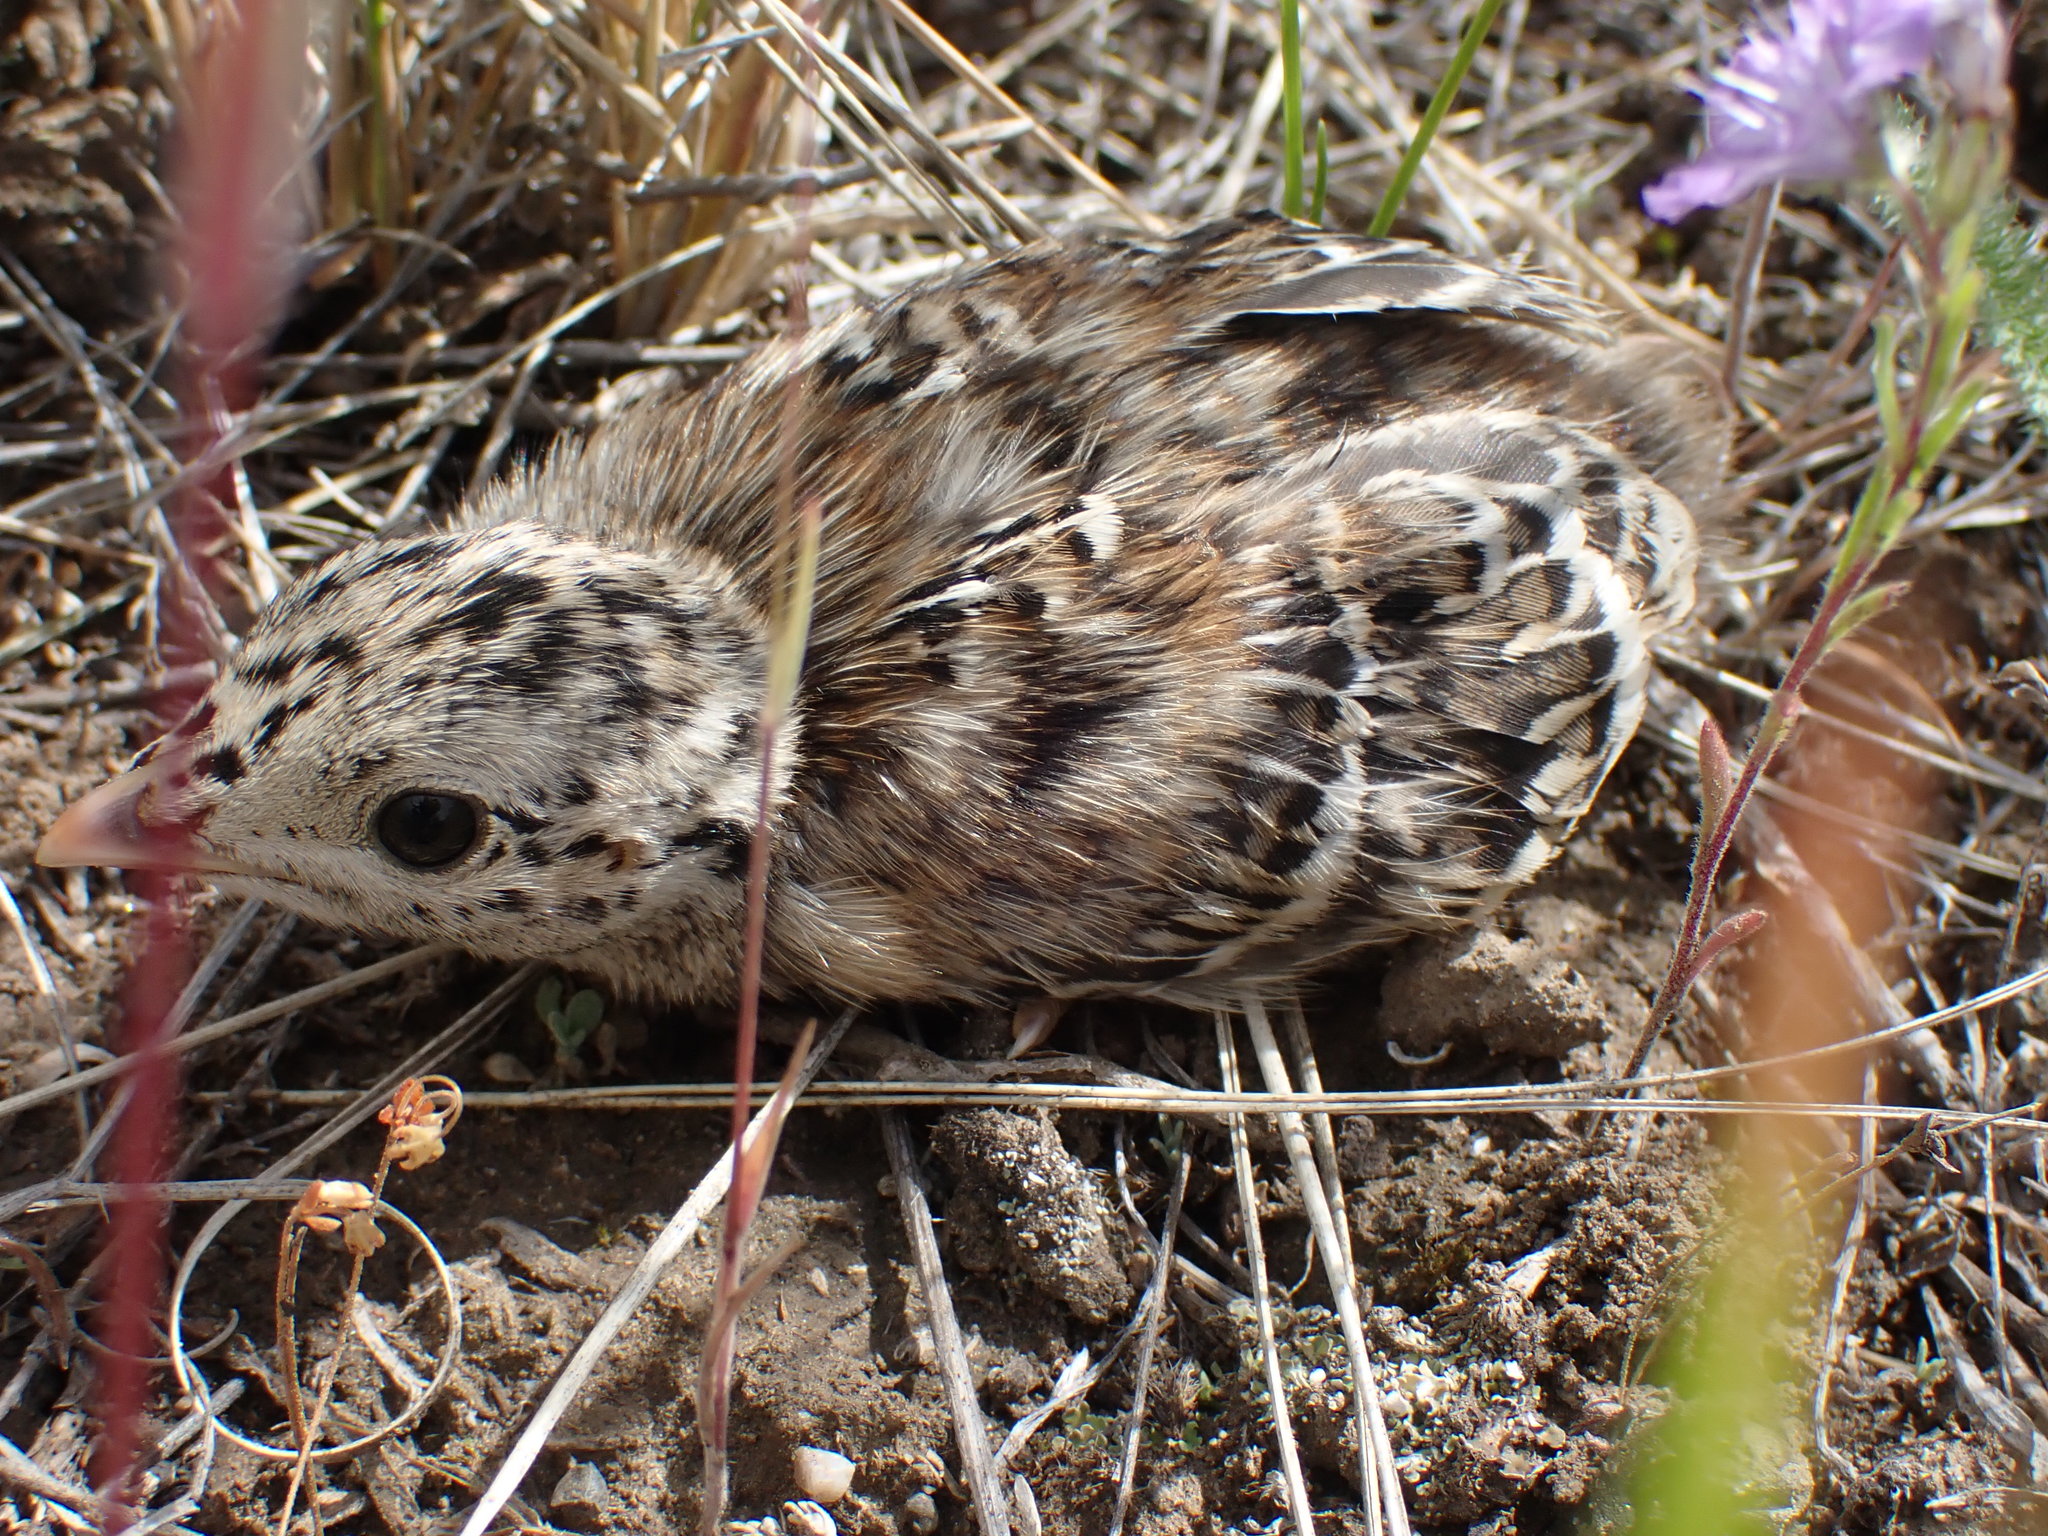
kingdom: Animalia
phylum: Chordata
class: Aves
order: Galliformes
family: Phasianidae
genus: Tympanuchus
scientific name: Tympanuchus phasianellus
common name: Sharp-tailed grouse
